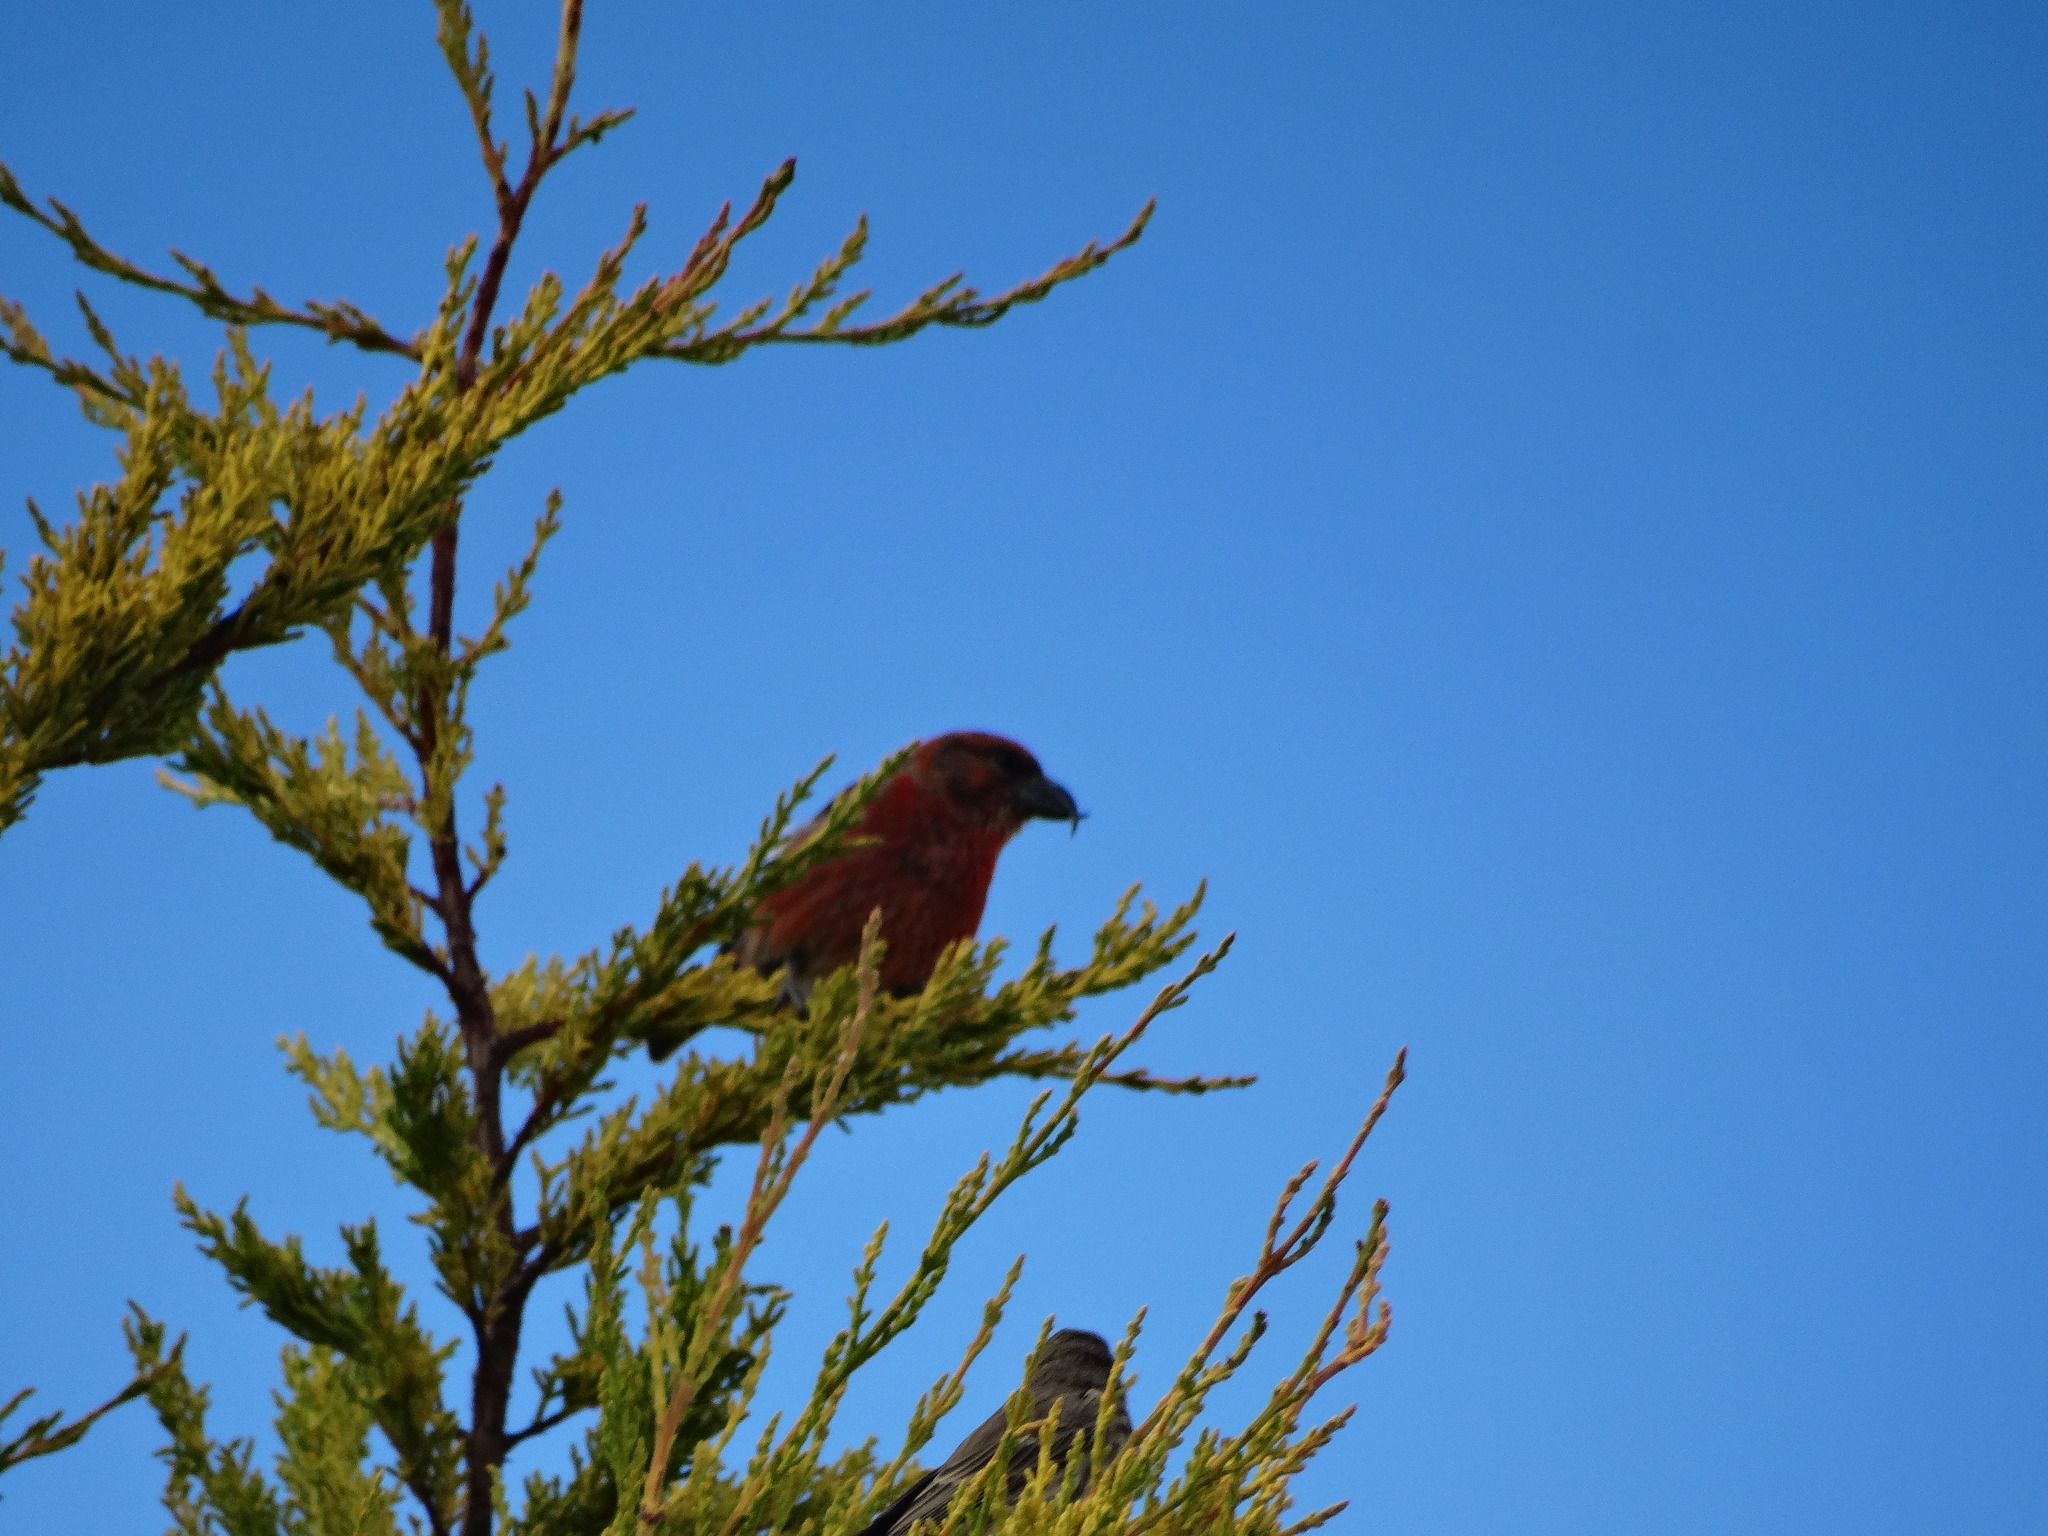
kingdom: Animalia
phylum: Chordata
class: Aves
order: Passeriformes
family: Fringillidae
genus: Loxia
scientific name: Loxia curvirostra
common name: Red crossbill
